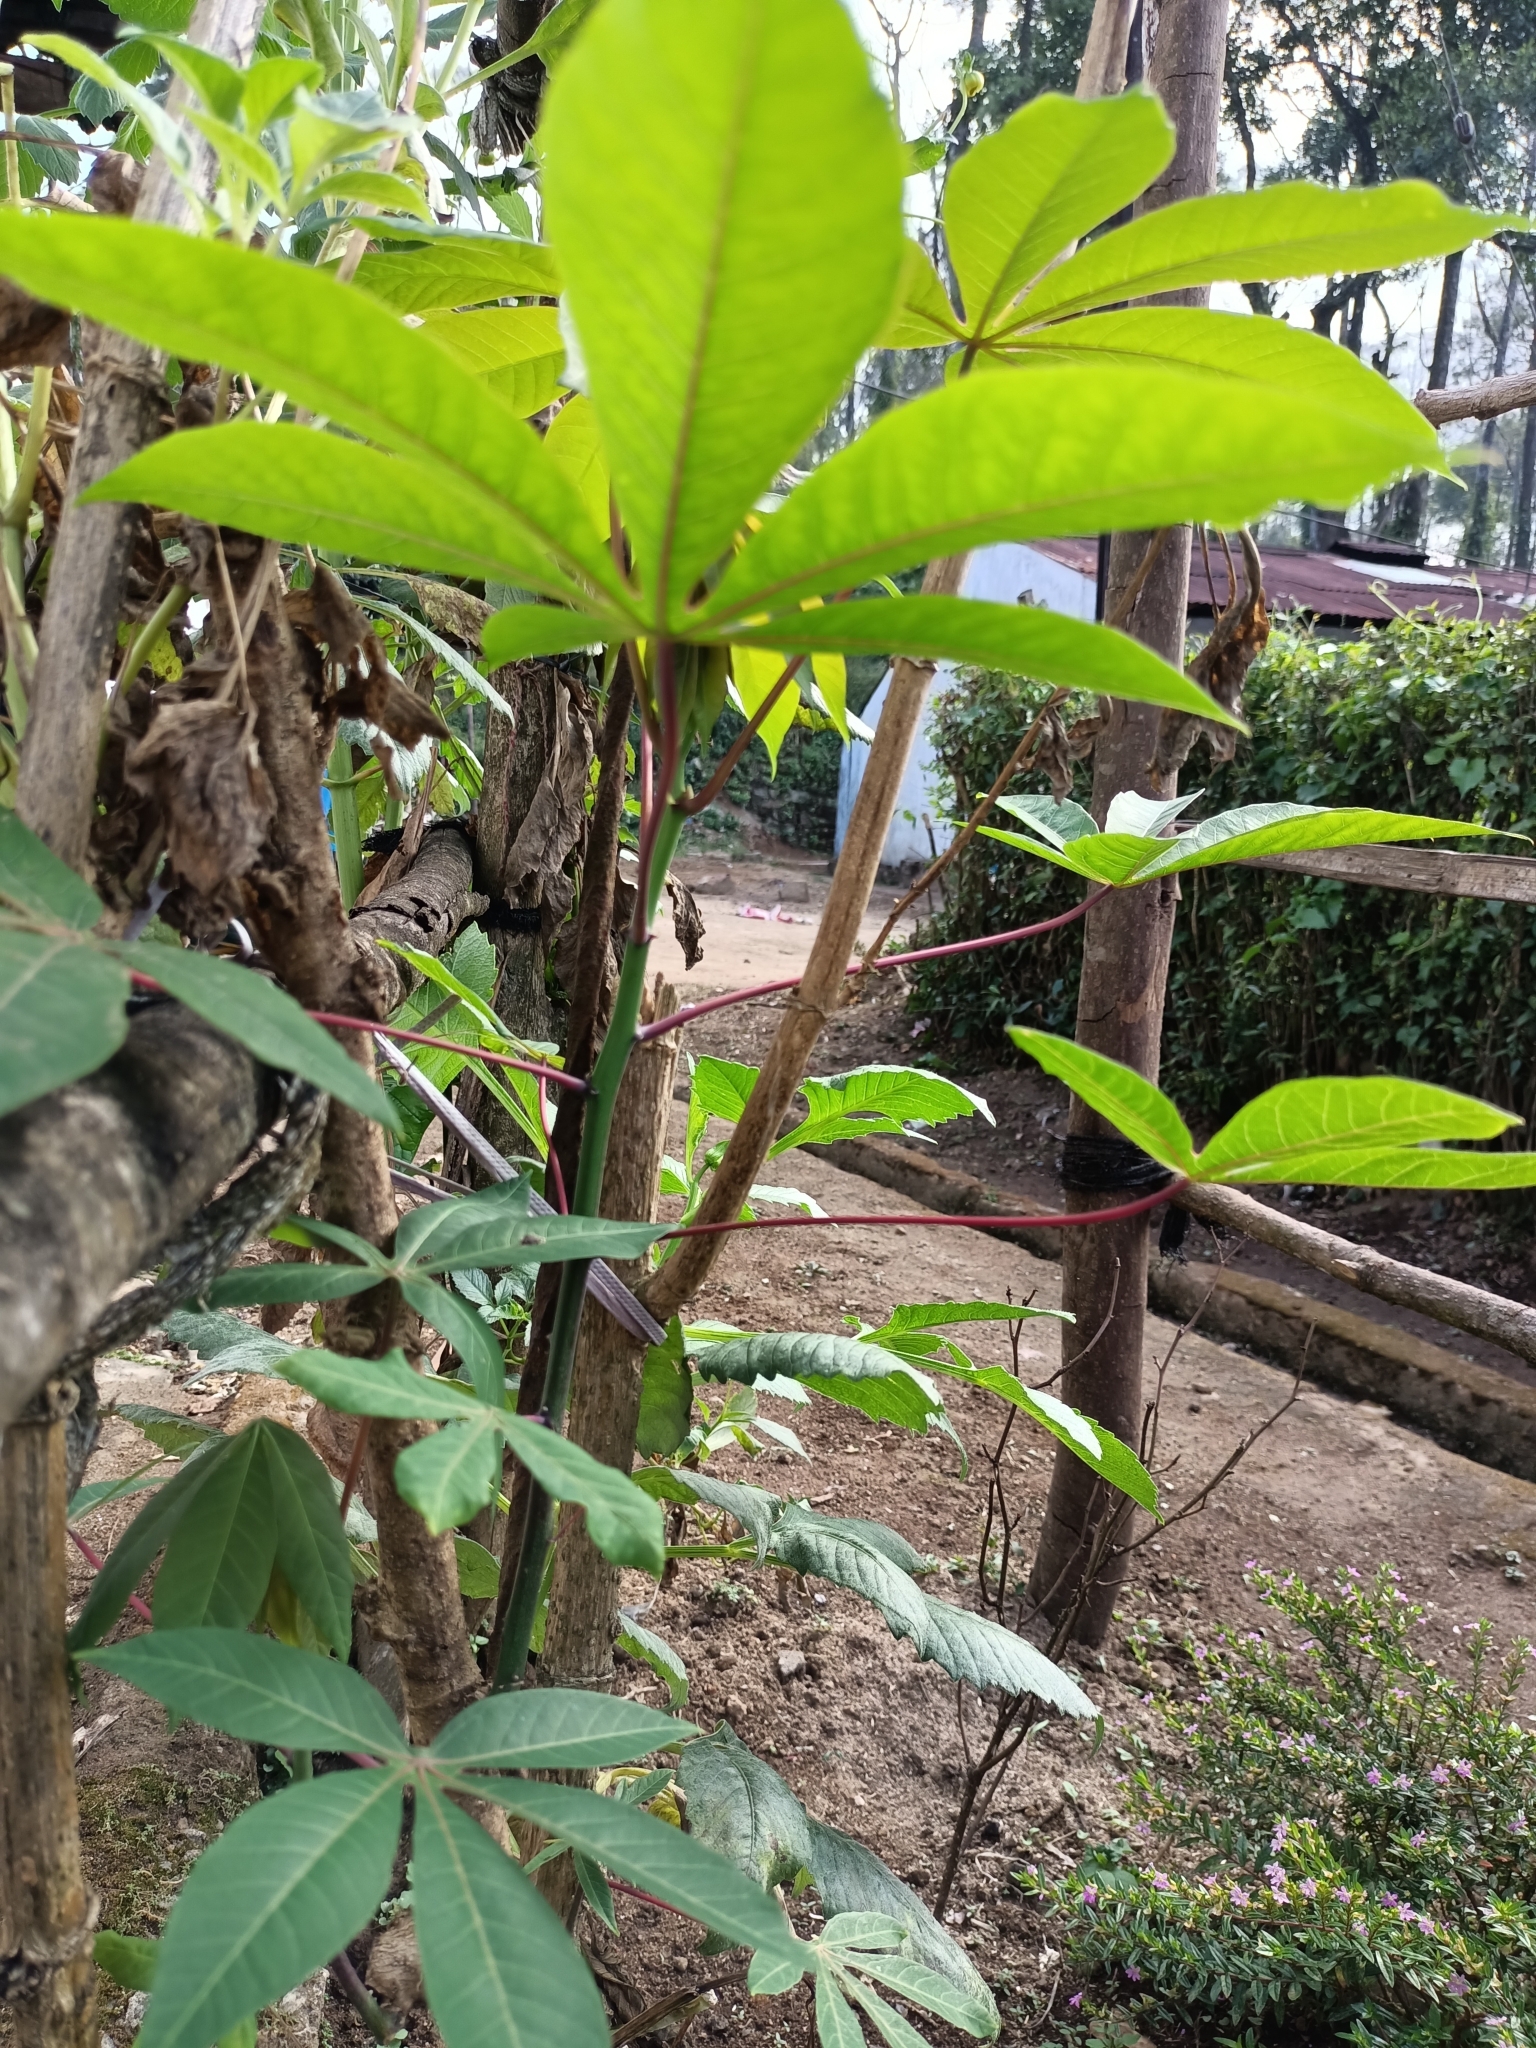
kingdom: Plantae
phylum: Tracheophyta
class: Magnoliopsida
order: Malpighiales
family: Euphorbiaceae
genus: Manihot
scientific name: Manihot esculenta
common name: Cassava
